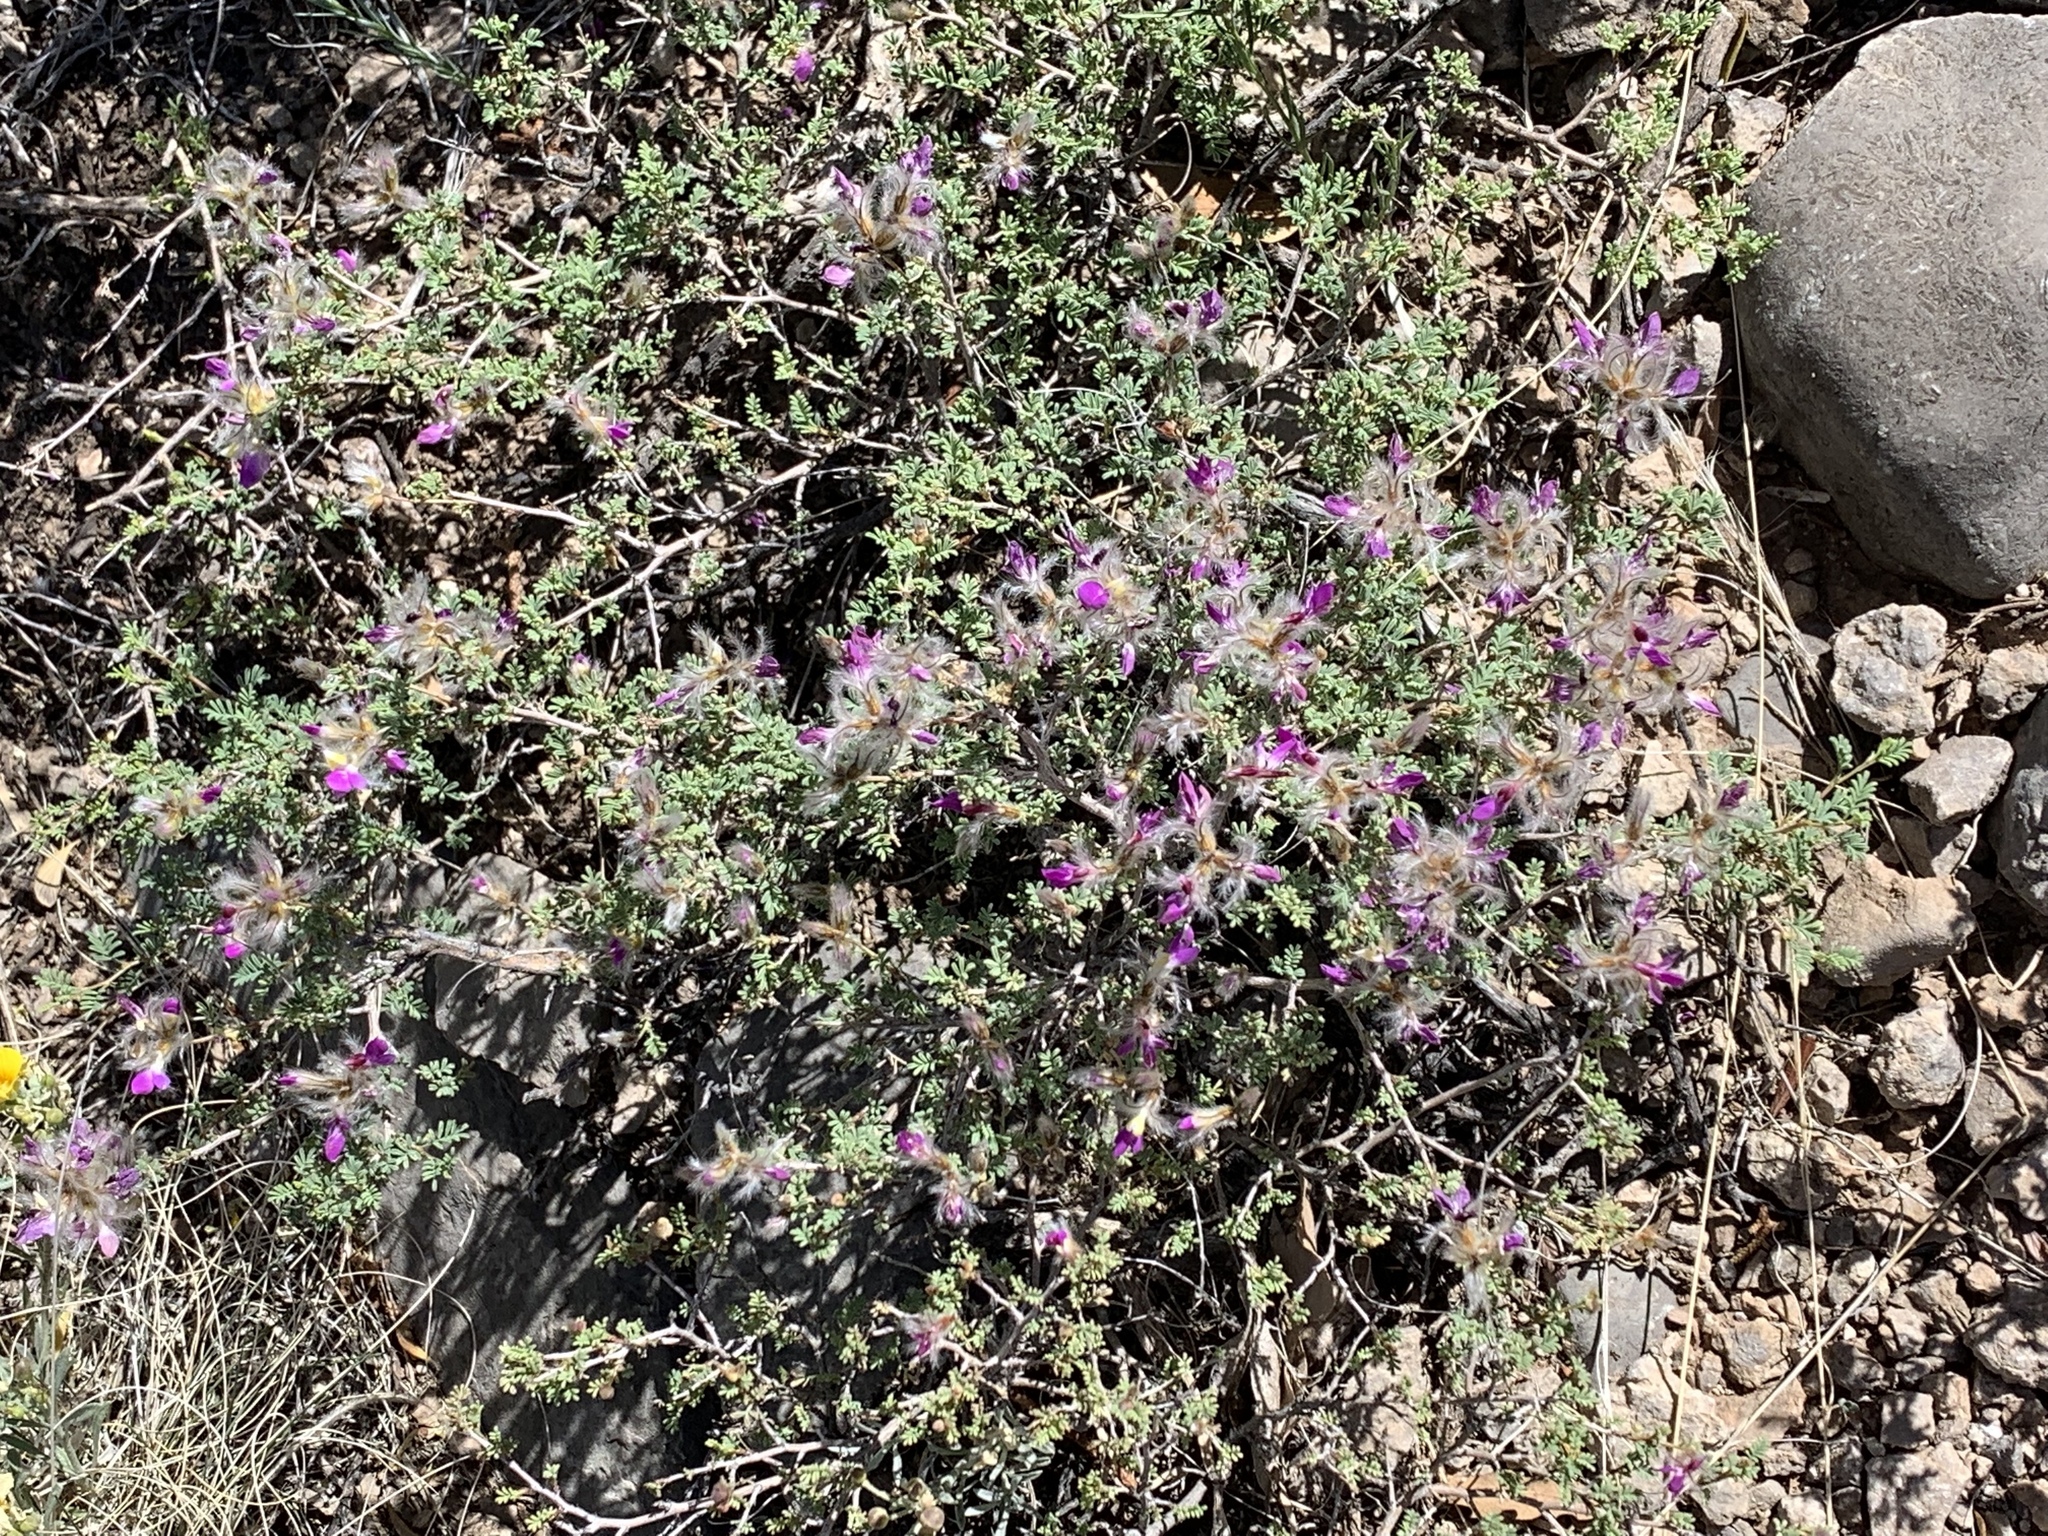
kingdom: Plantae
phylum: Tracheophyta
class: Magnoliopsida
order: Fabales
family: Fabaceae
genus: Dalea
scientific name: Dalea formosa
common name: Feather-plume dalea
